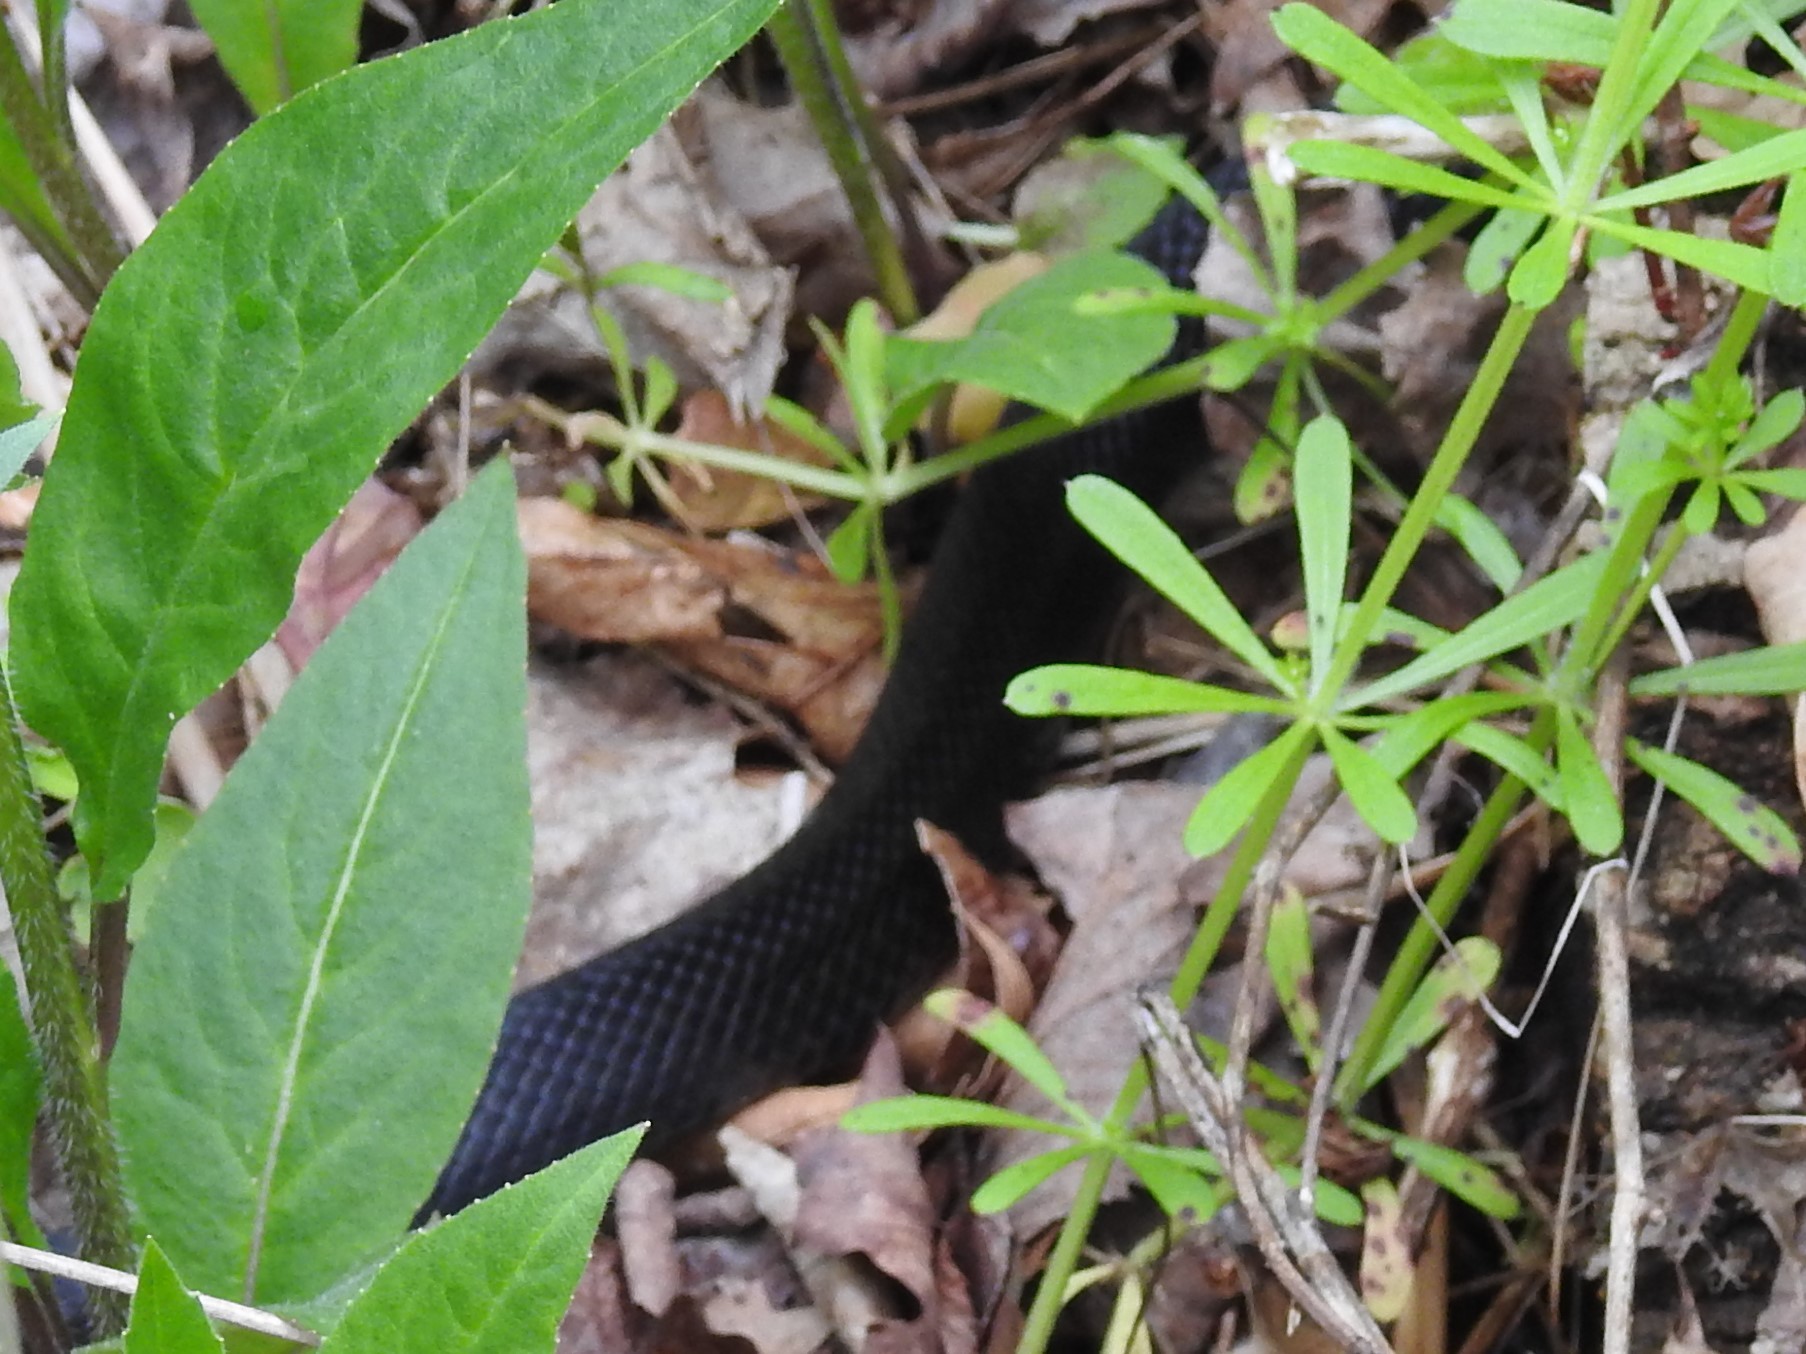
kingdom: Animalia
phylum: Chordata
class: Squamata
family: Colubridae
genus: Pantherophis
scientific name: Pantherophis spiloides
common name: Gray rat snake
